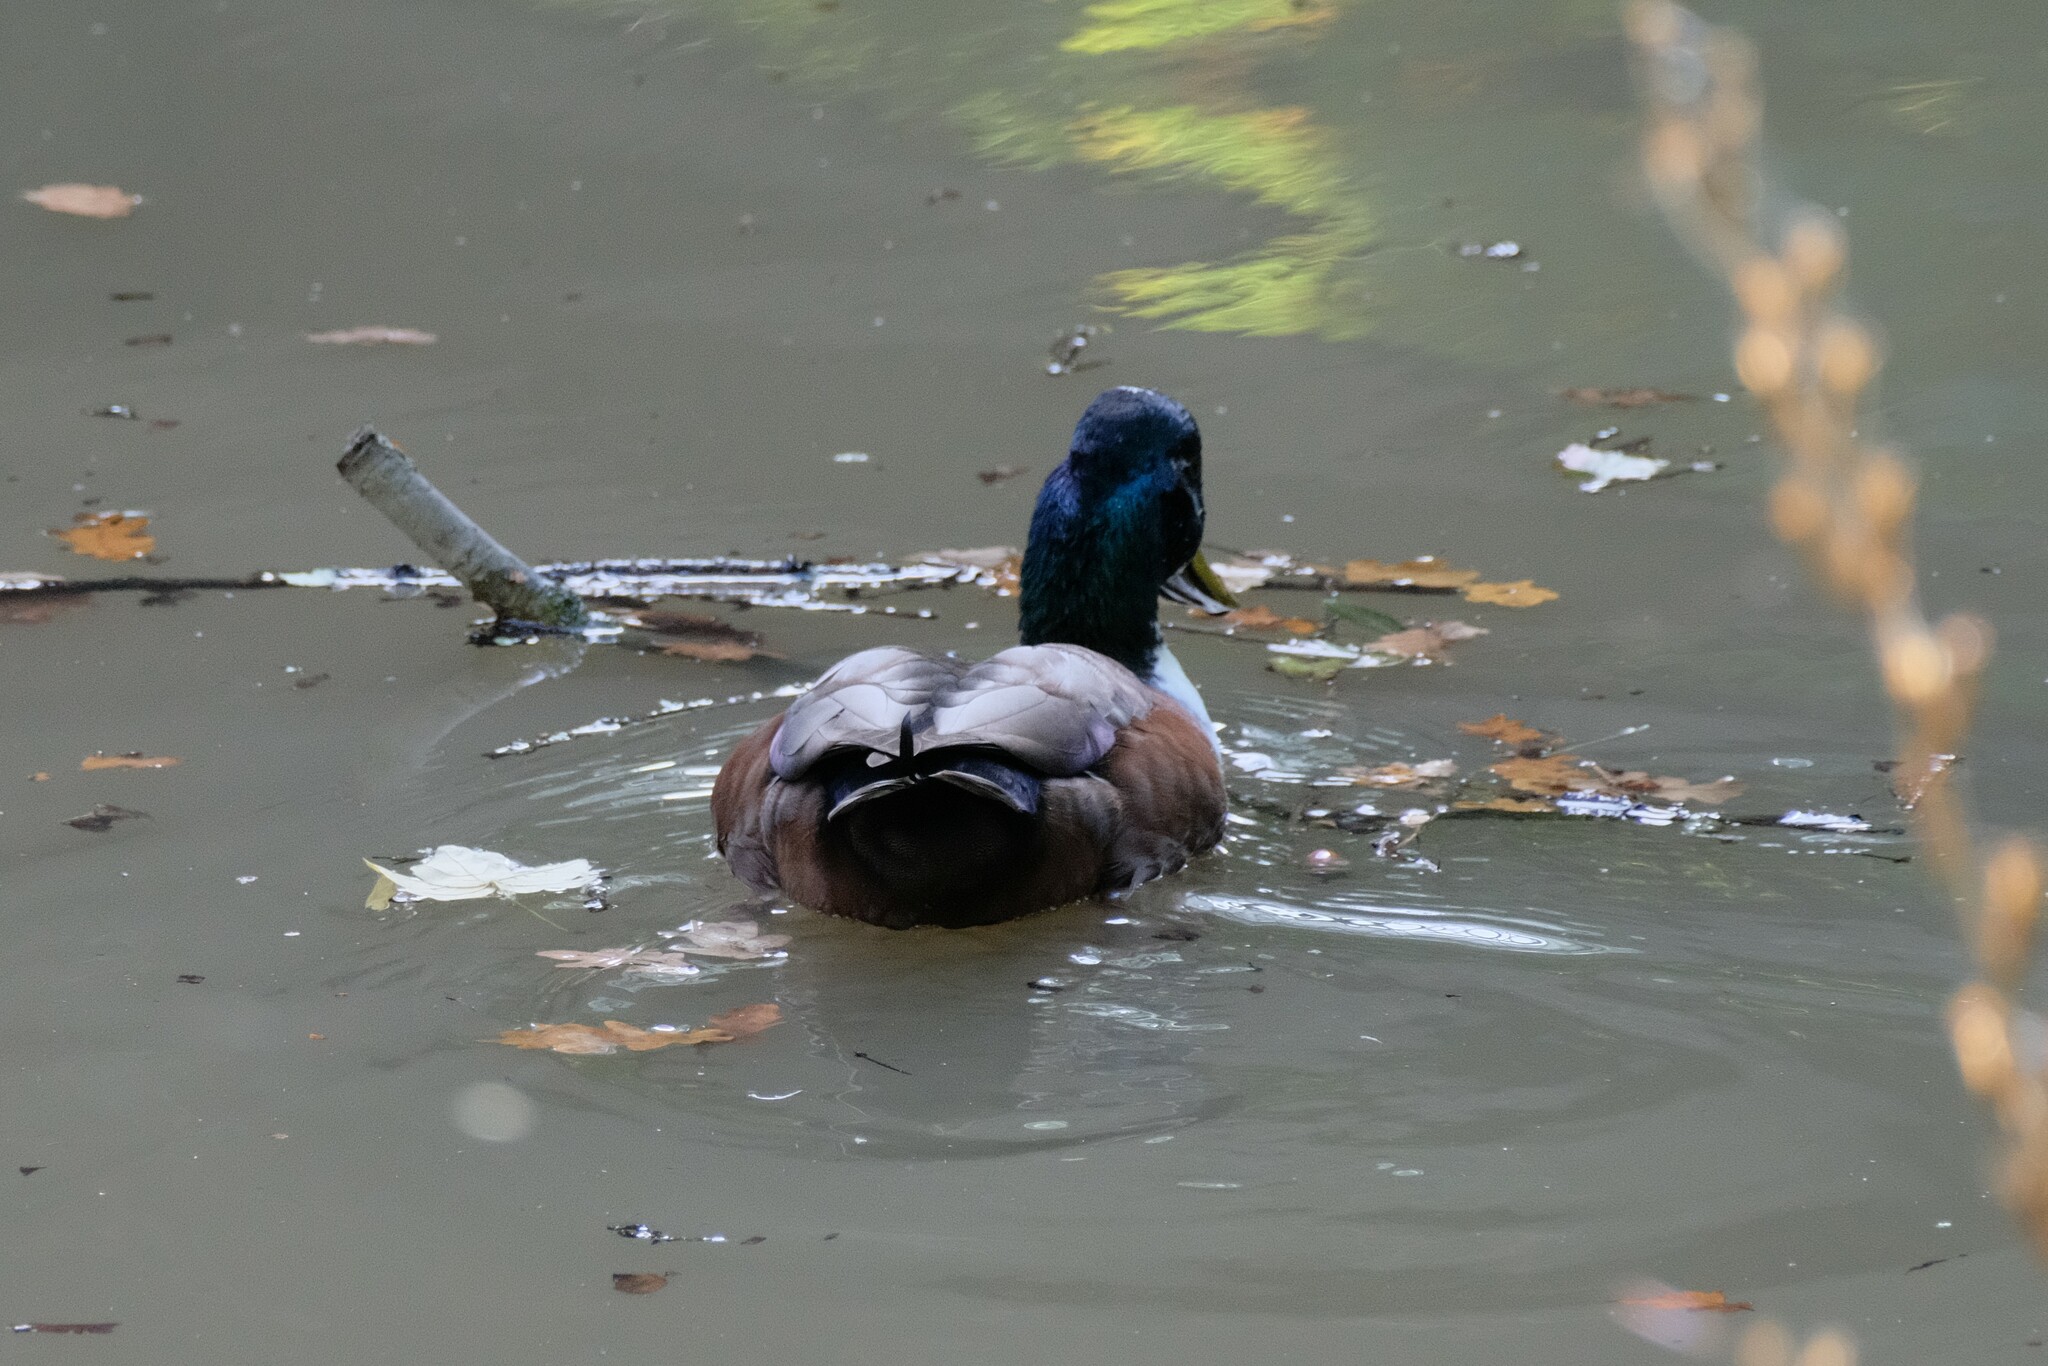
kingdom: Animalia
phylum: Chordata
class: Aves
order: Anseriformes
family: Anatidae
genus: Anas
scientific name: Anas platyrhynchos
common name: Mallard
